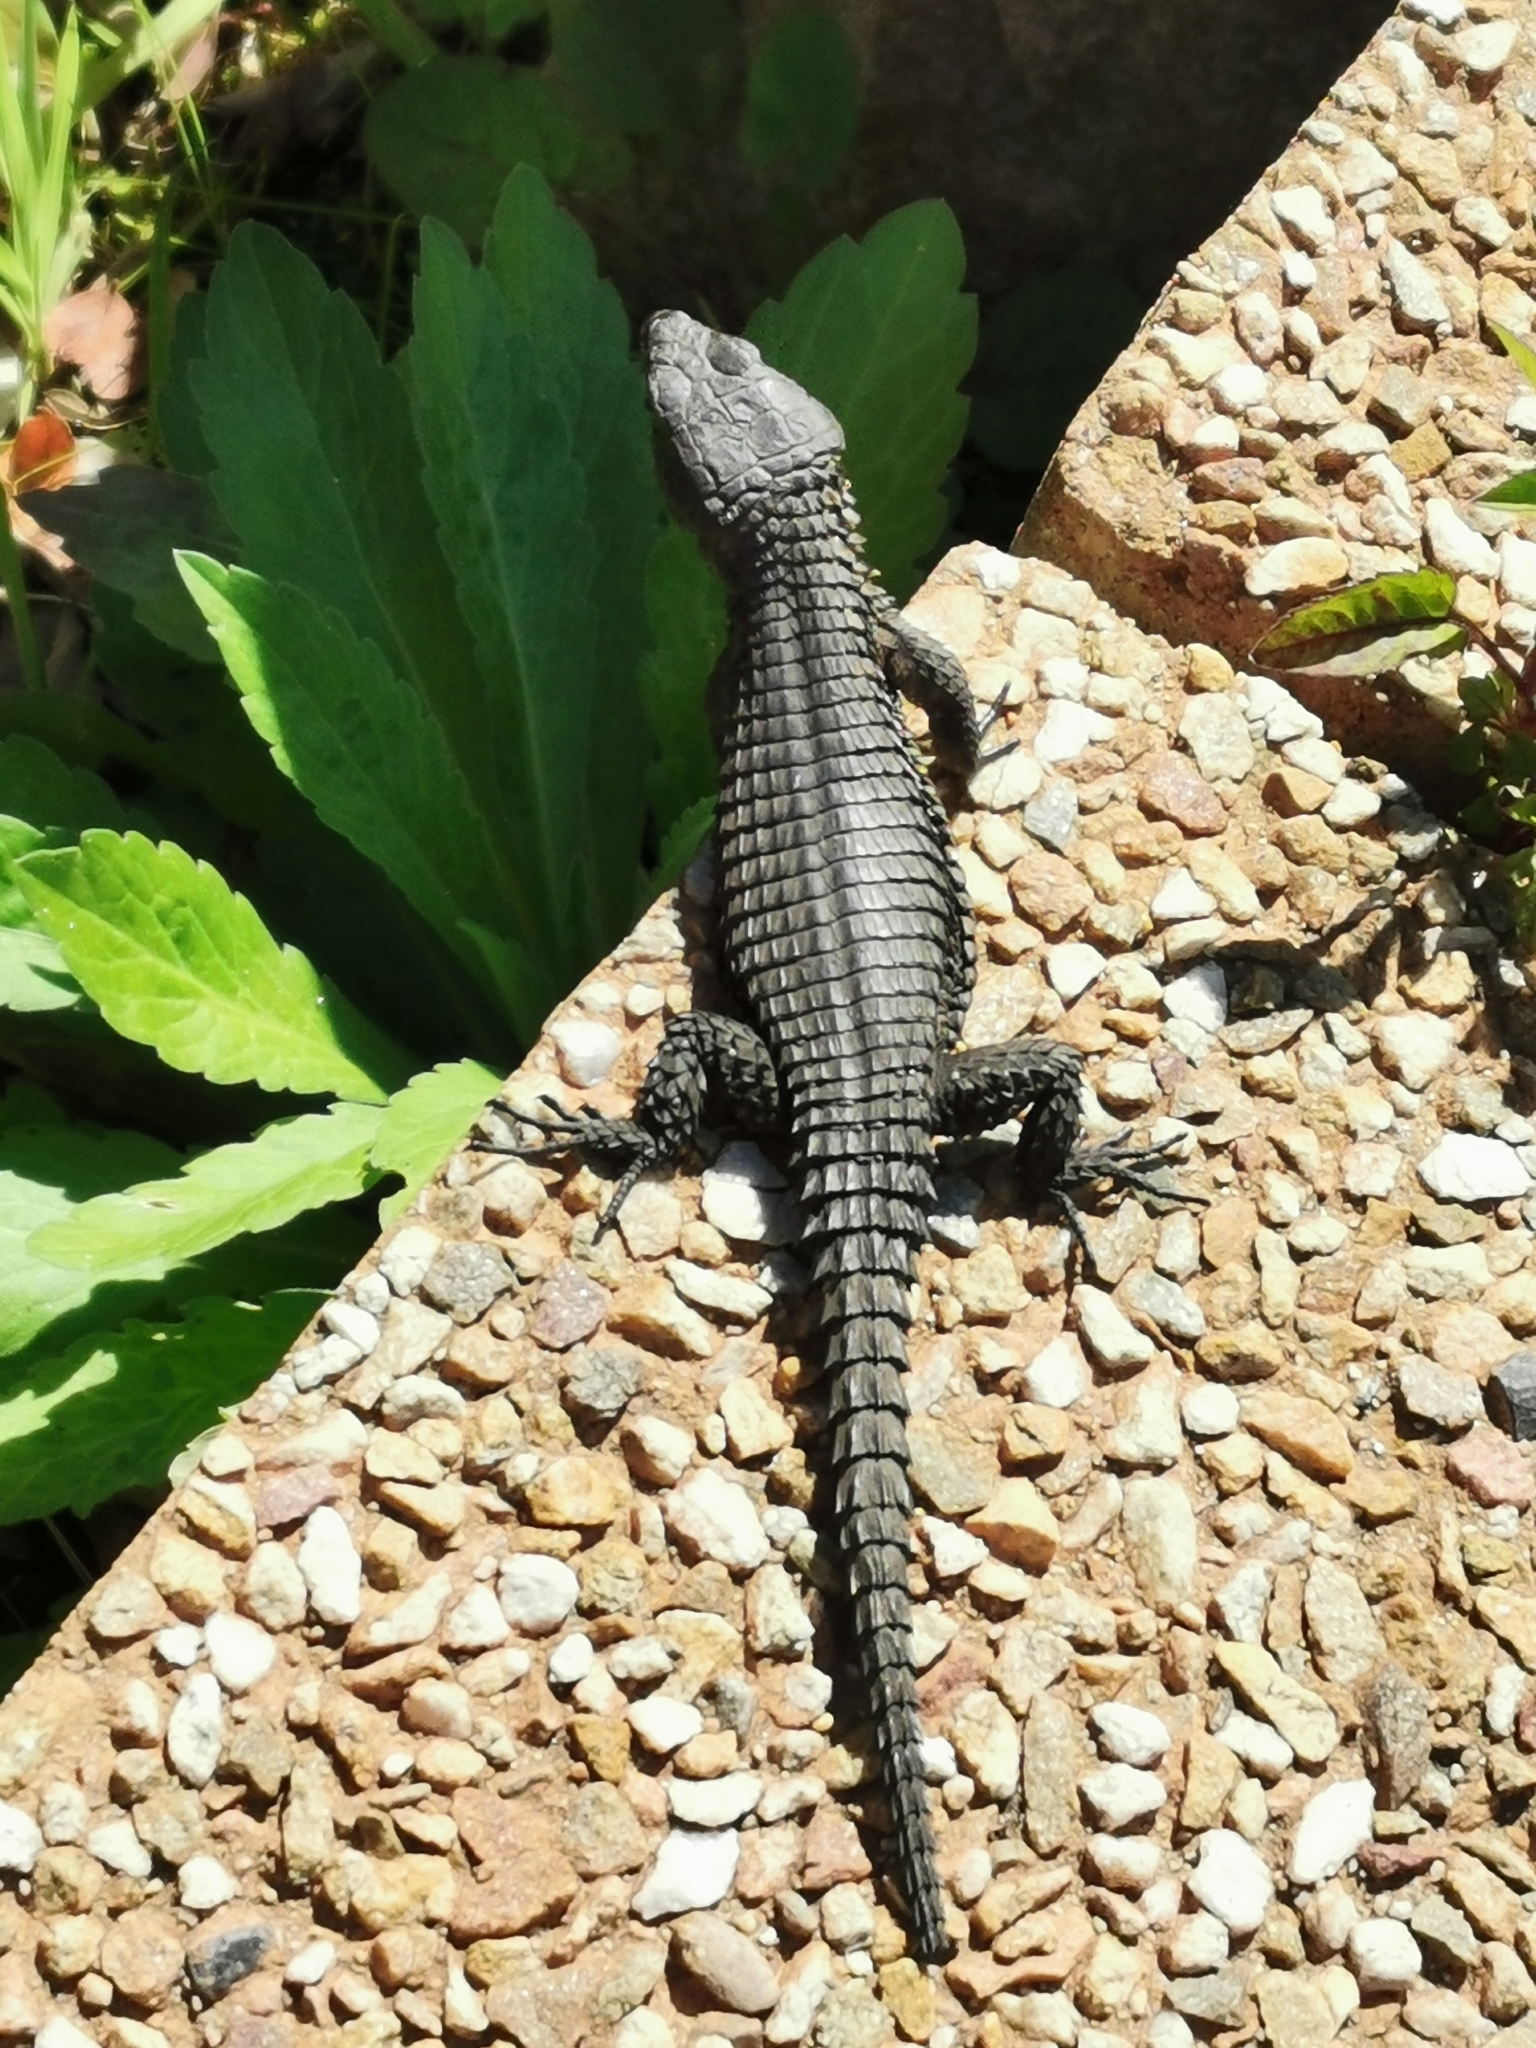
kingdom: Animalia
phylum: Chordata
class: Squamata
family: Cordylidae
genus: Cordylus
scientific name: Cordylus niger
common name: Black girdled lizard
